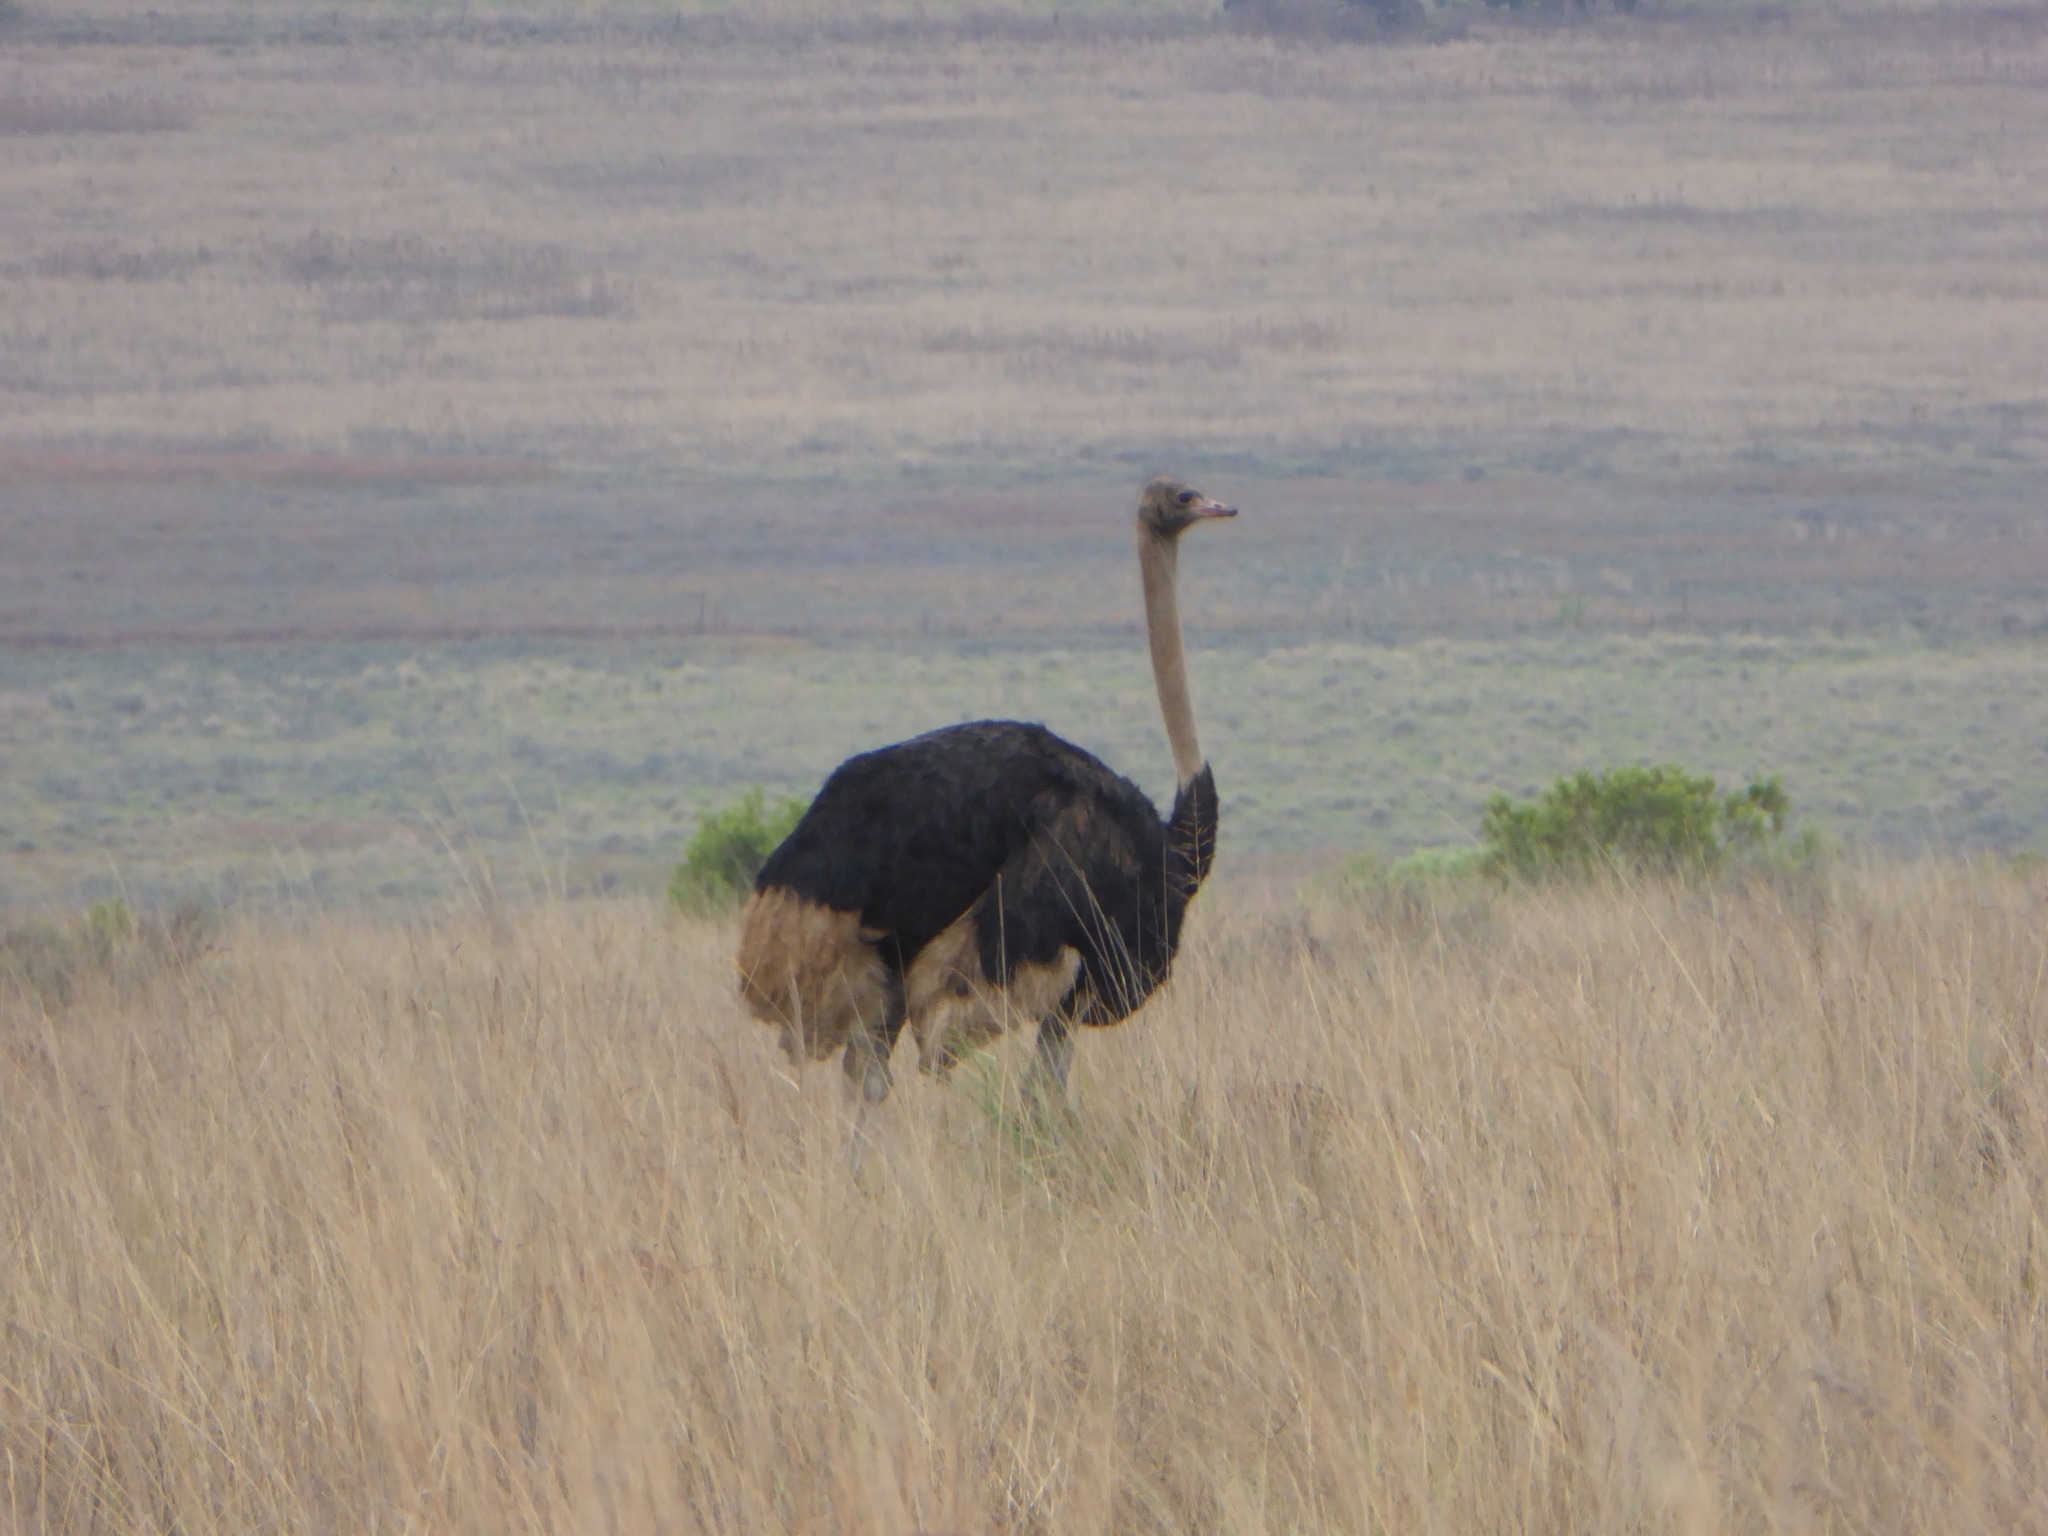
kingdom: Animalia
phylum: Chordata
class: Aves
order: Struthioniformes
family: Struthionidae
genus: Struthio
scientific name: Struthio camelus
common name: Common ostrich
